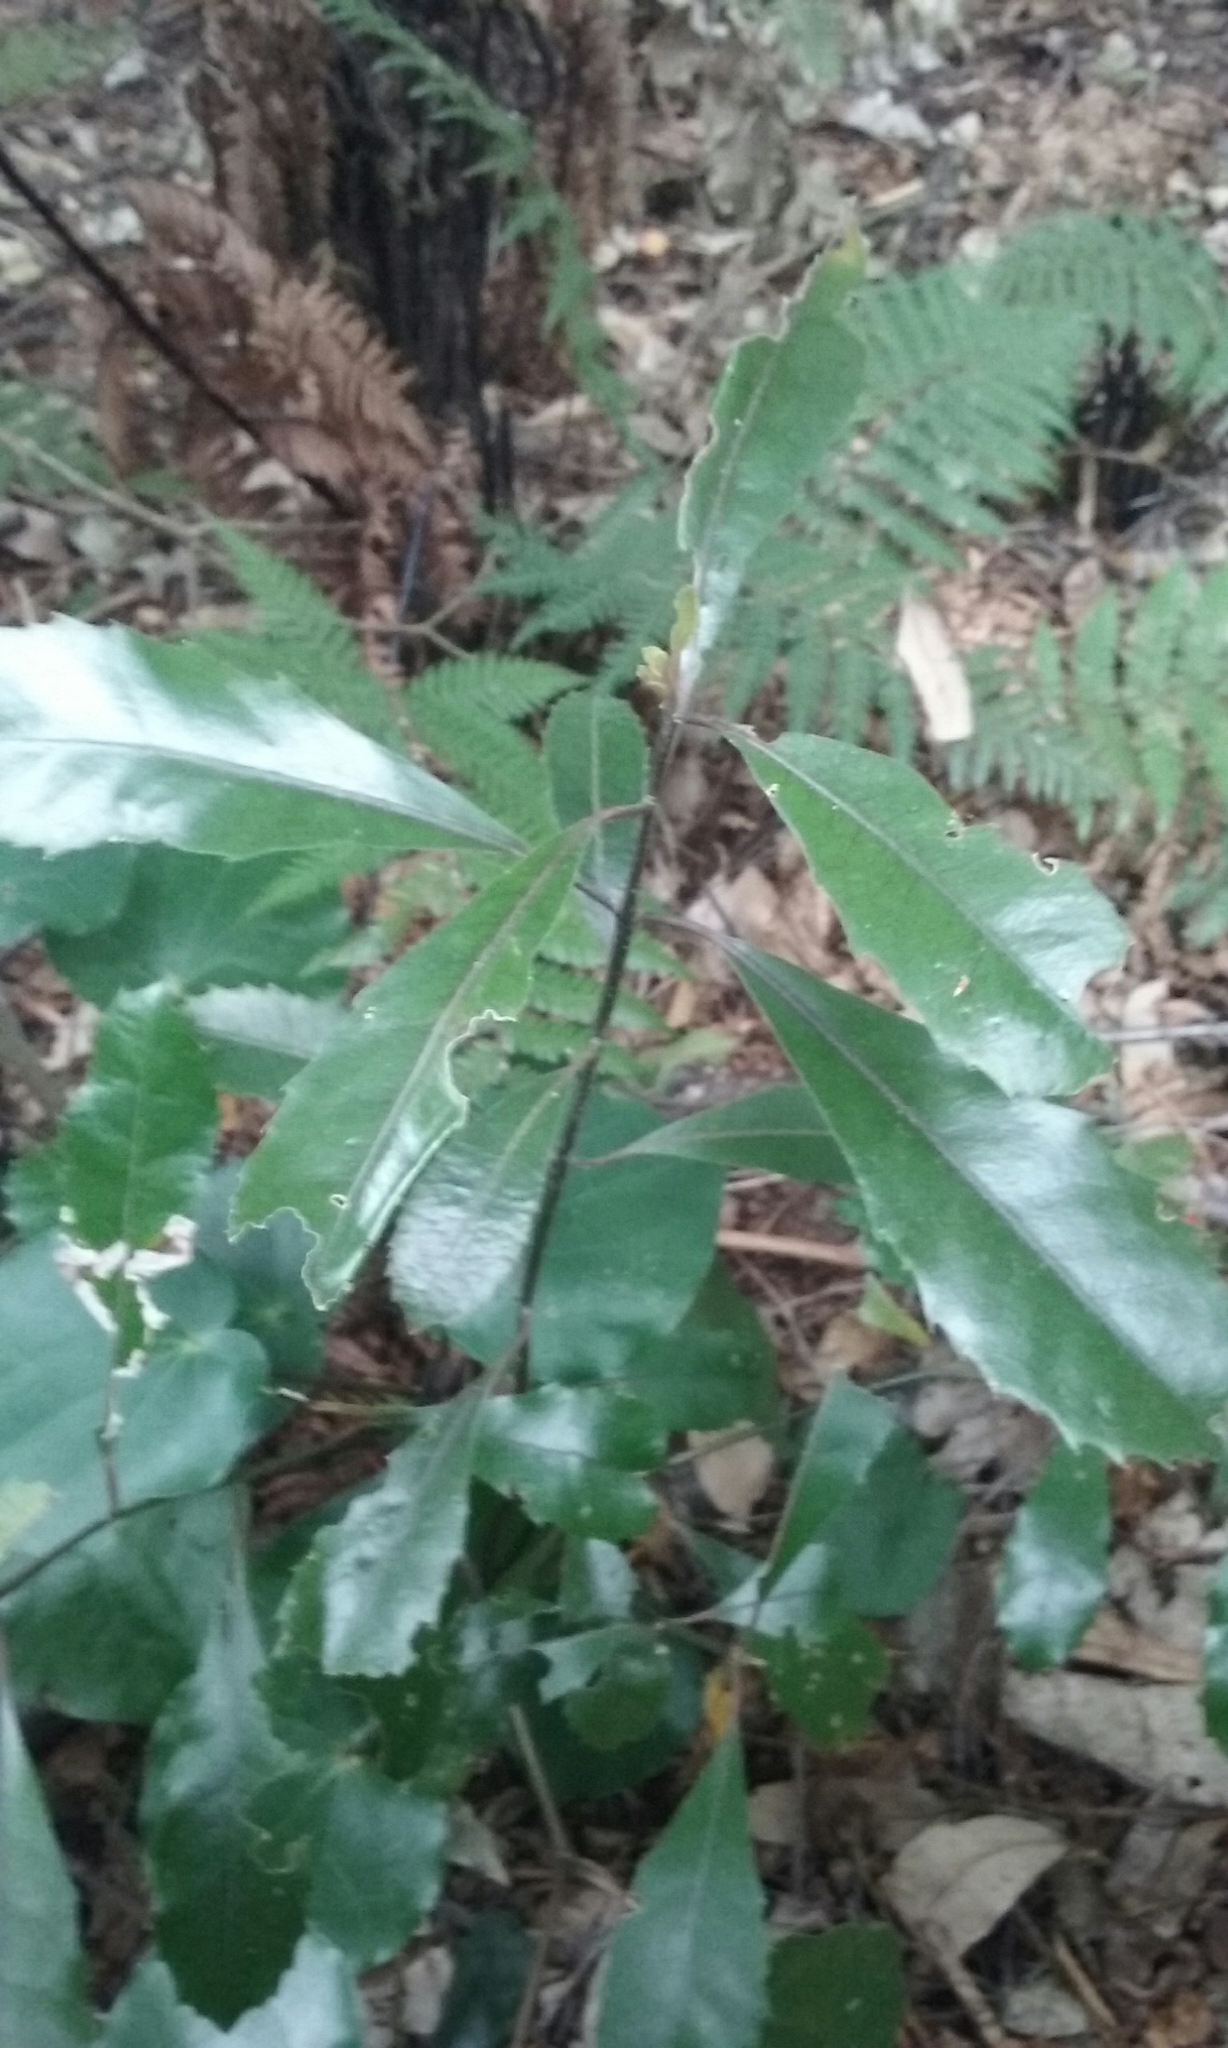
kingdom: Plantae
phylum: Tracheophyta
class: Magnoliopsida
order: Laurales
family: Monimiaceae
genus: Hedycarya
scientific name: Hedycarya arborea
